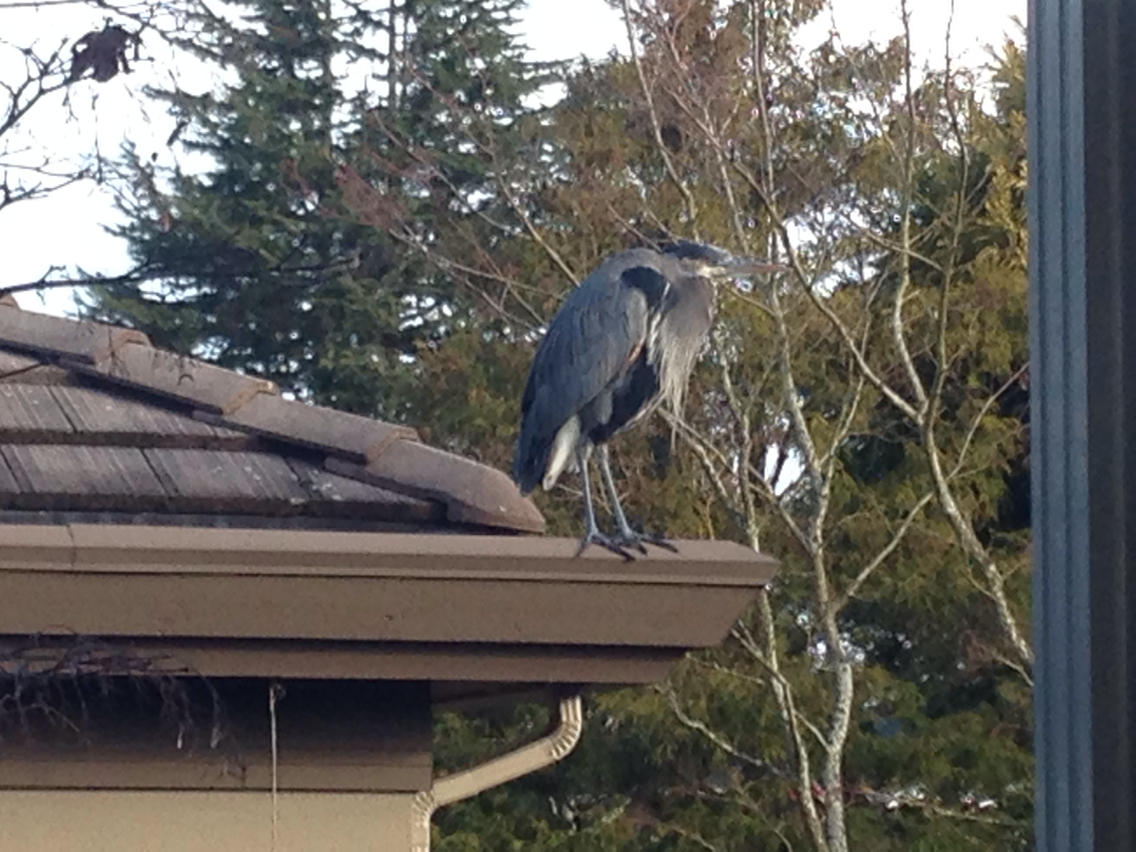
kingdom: Animalia
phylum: Chordata
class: Aves
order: Pelecaniformes
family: Ardeidae
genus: Ardea
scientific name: Ardea herodias
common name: Great blue heron
